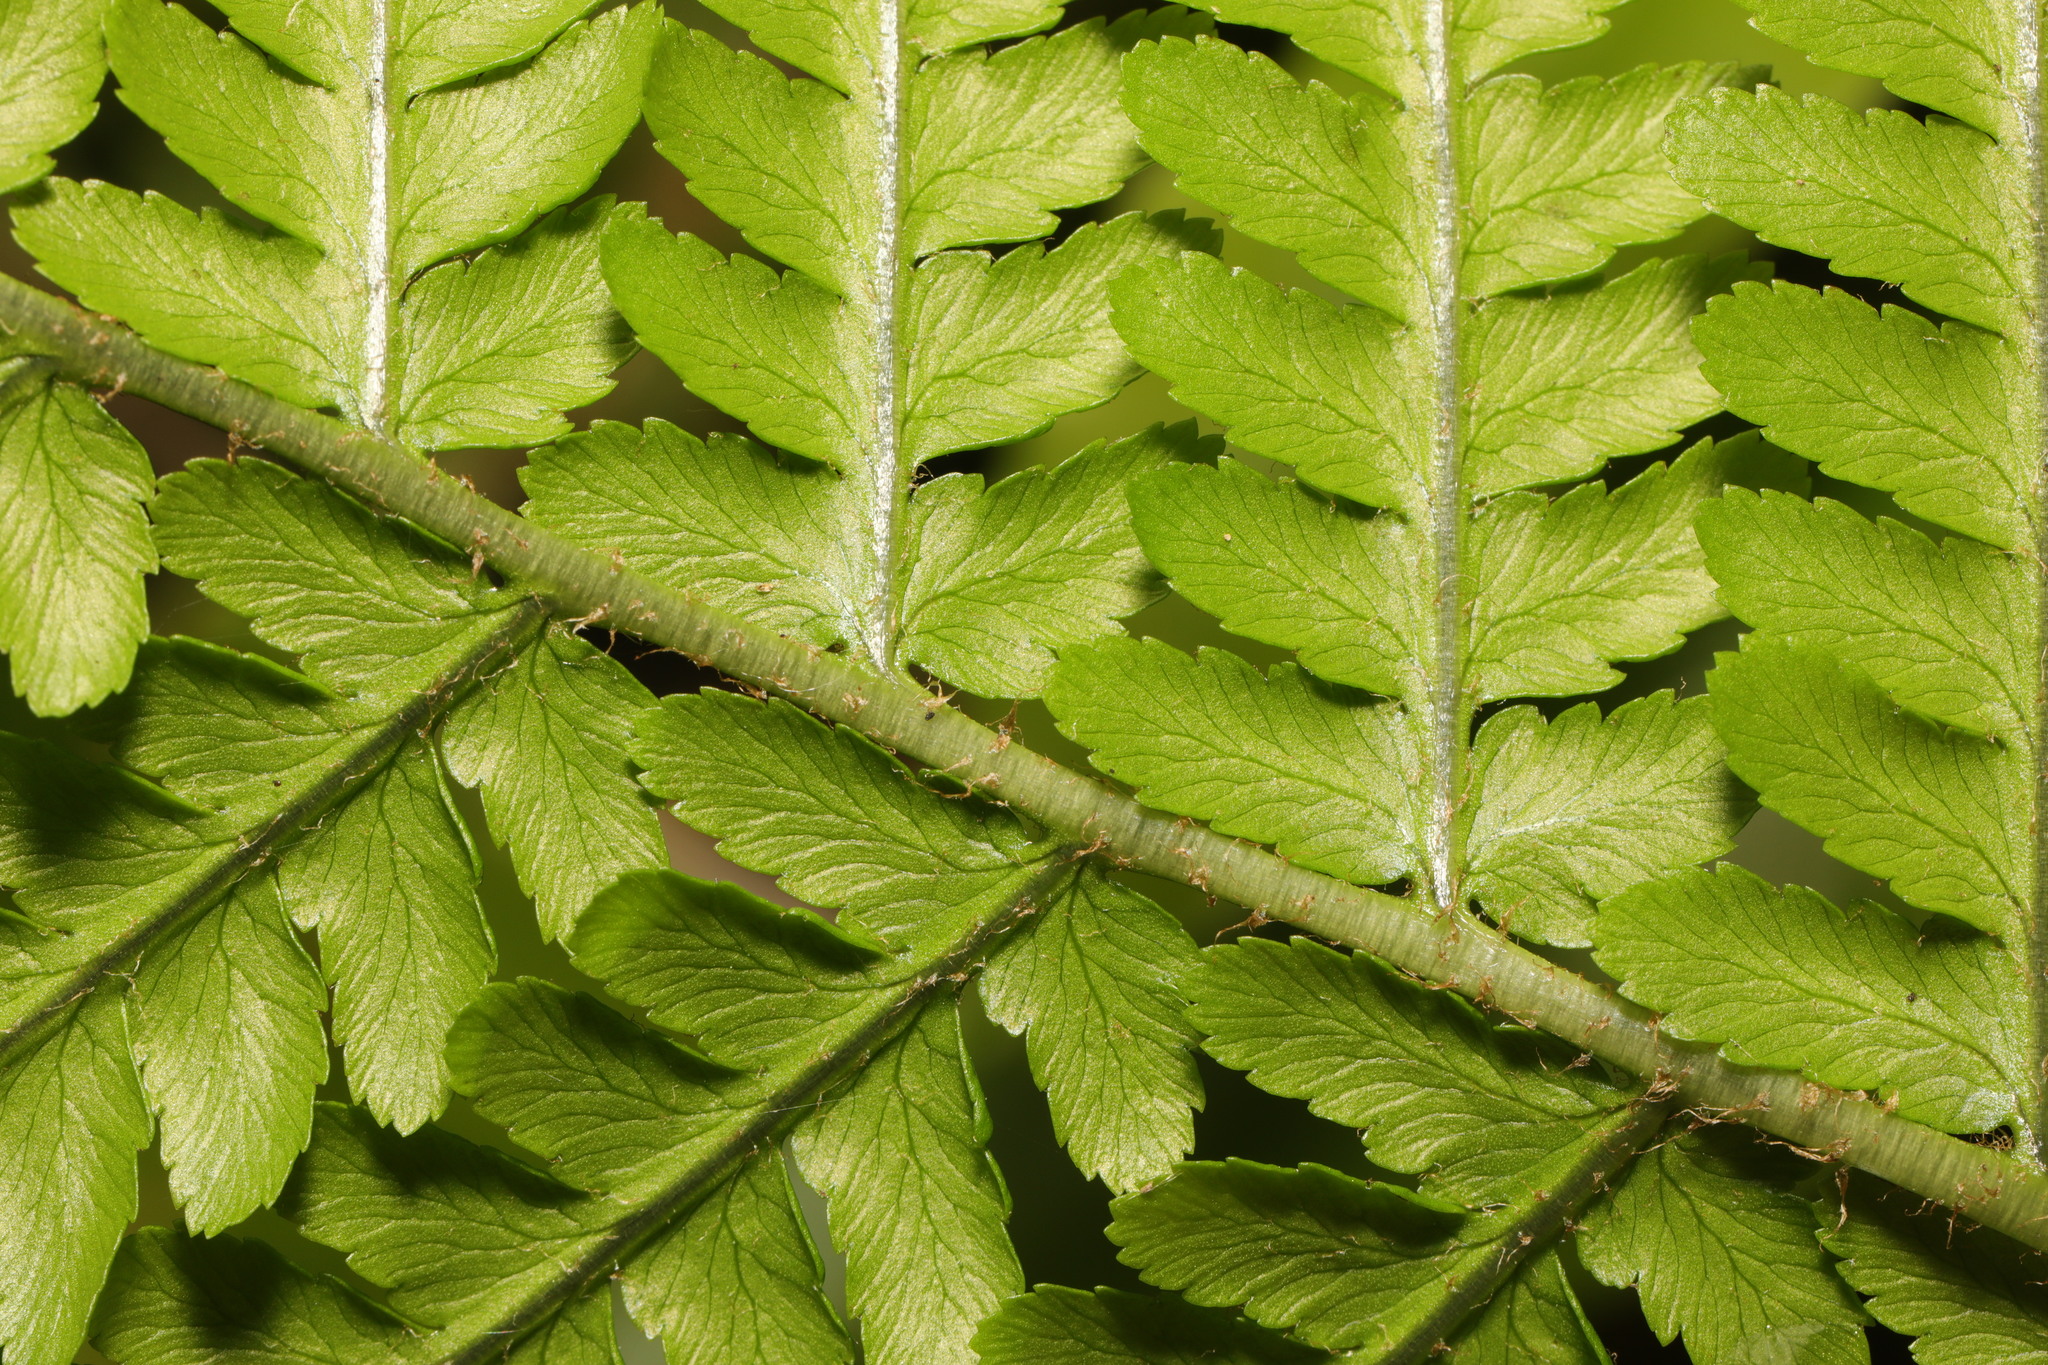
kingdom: Plantae
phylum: Tracheophyta
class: Polypodiopsida
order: Polypodiales
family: Dryopteridaceae
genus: Dryopteris
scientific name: Dryopteris filix-mas
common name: Male fern
